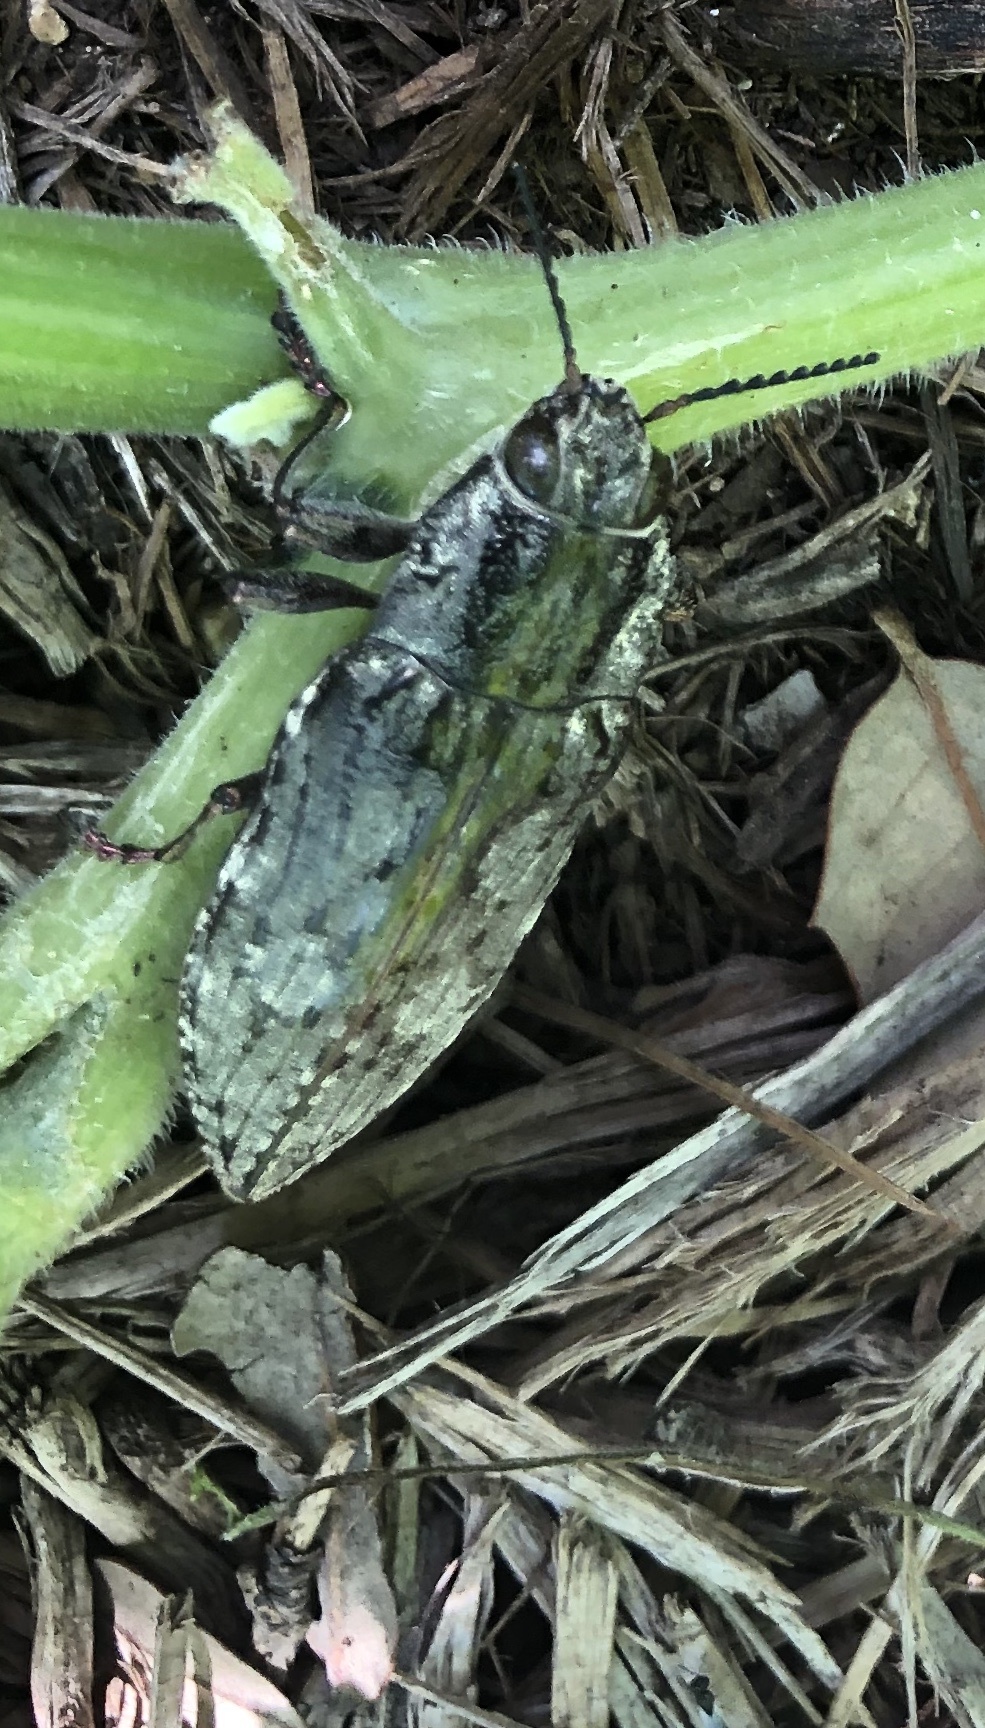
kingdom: Animalia
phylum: Arthropoda
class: Insecta
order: Coleoptera
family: Buprestidae
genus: Texania
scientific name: Texania fulleri
